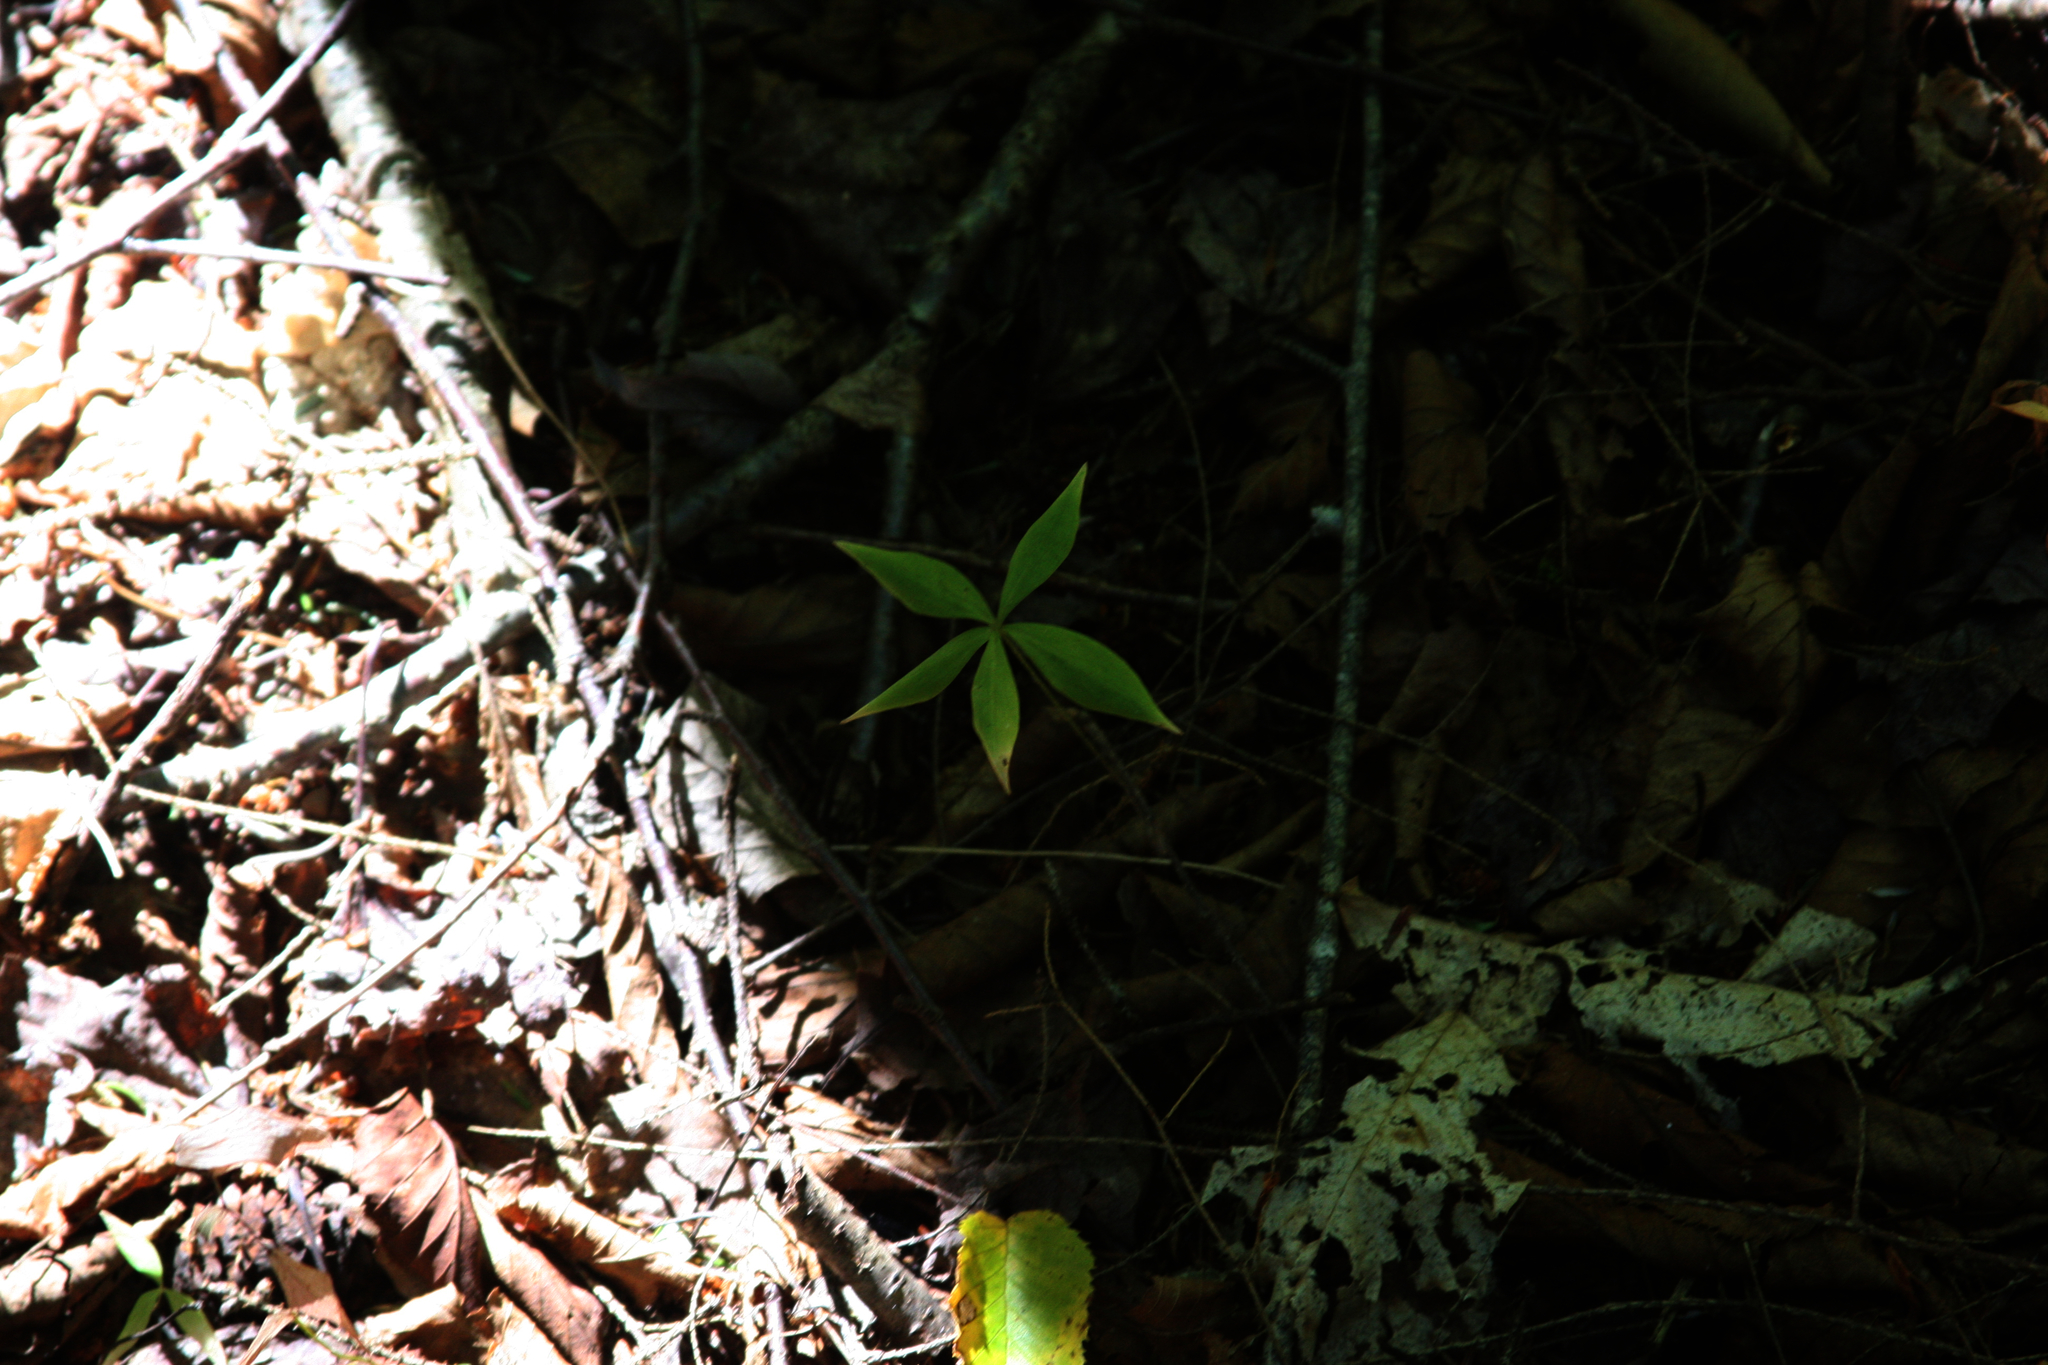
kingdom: Plantae
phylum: Tracheophyta
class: Liliopsida
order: Liliales
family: Liliaceae
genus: Medeola
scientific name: Medeola virginiana
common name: Indian cucumber-root
